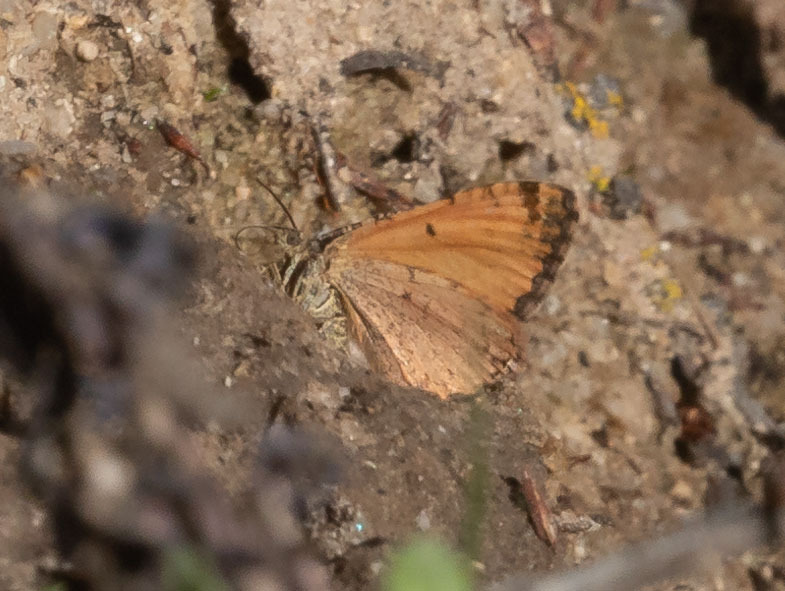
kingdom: Animalia
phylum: Arthropoda
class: Insecta
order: Lepidoptera
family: Geometridae
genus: Epirrhoe
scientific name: Epirrhoe plebeculata
